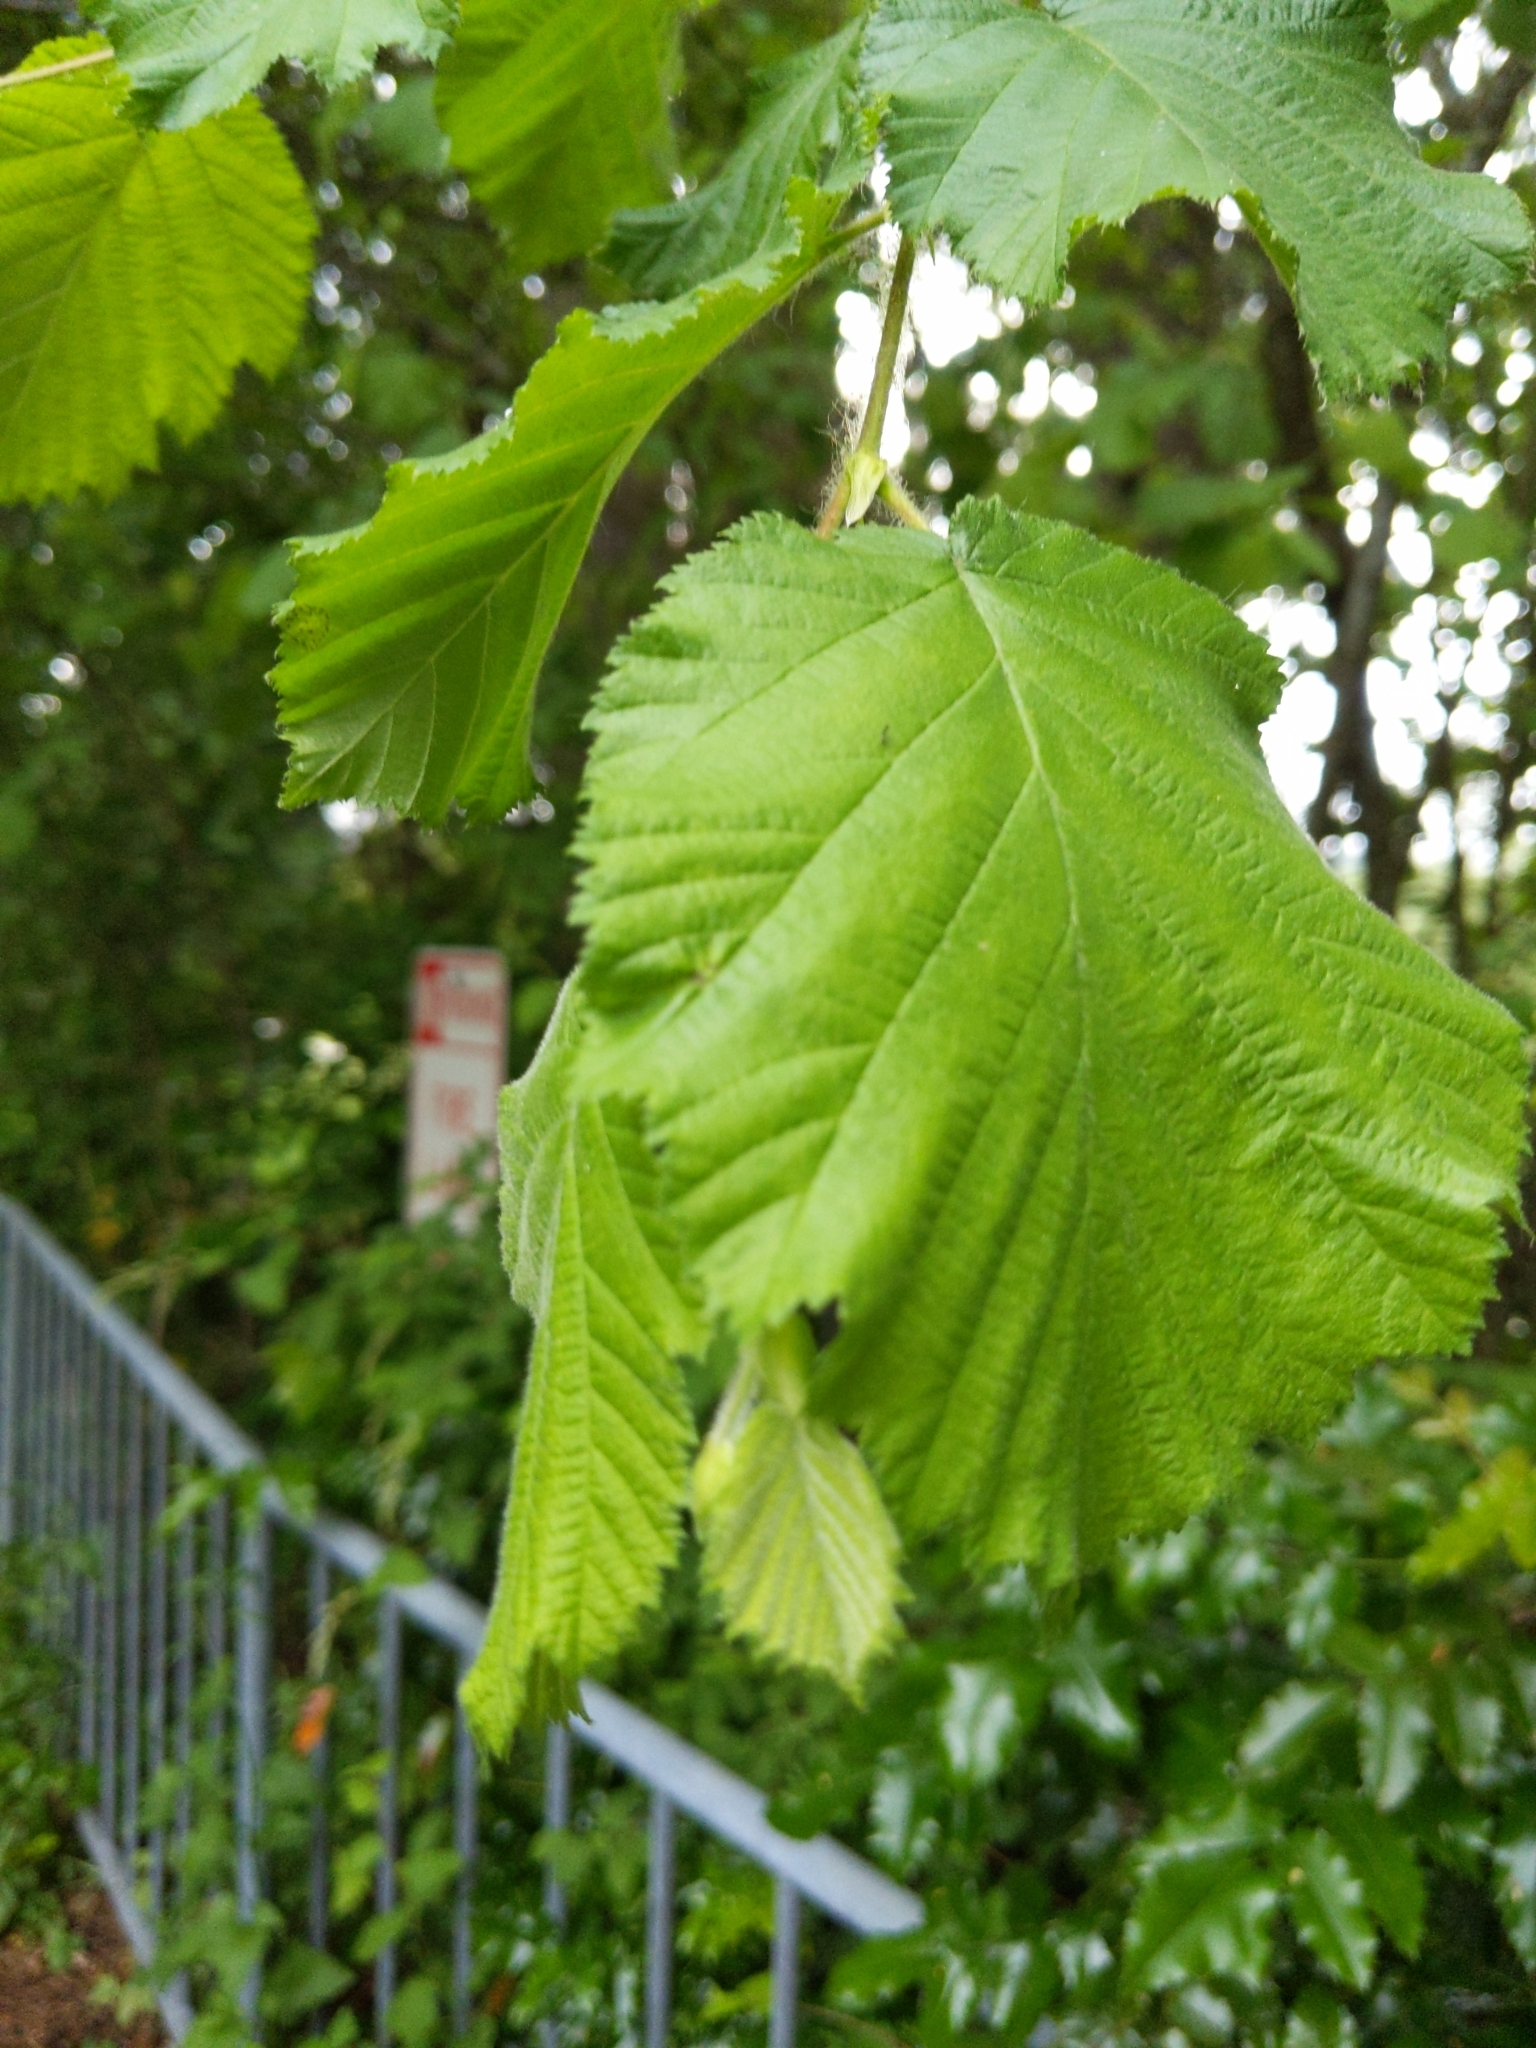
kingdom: Plantae
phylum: Tracheophyta
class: Magnoliopsida
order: Fagales
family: Betulaceae
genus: Corylus
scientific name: Corylus avellana
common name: European hazel
